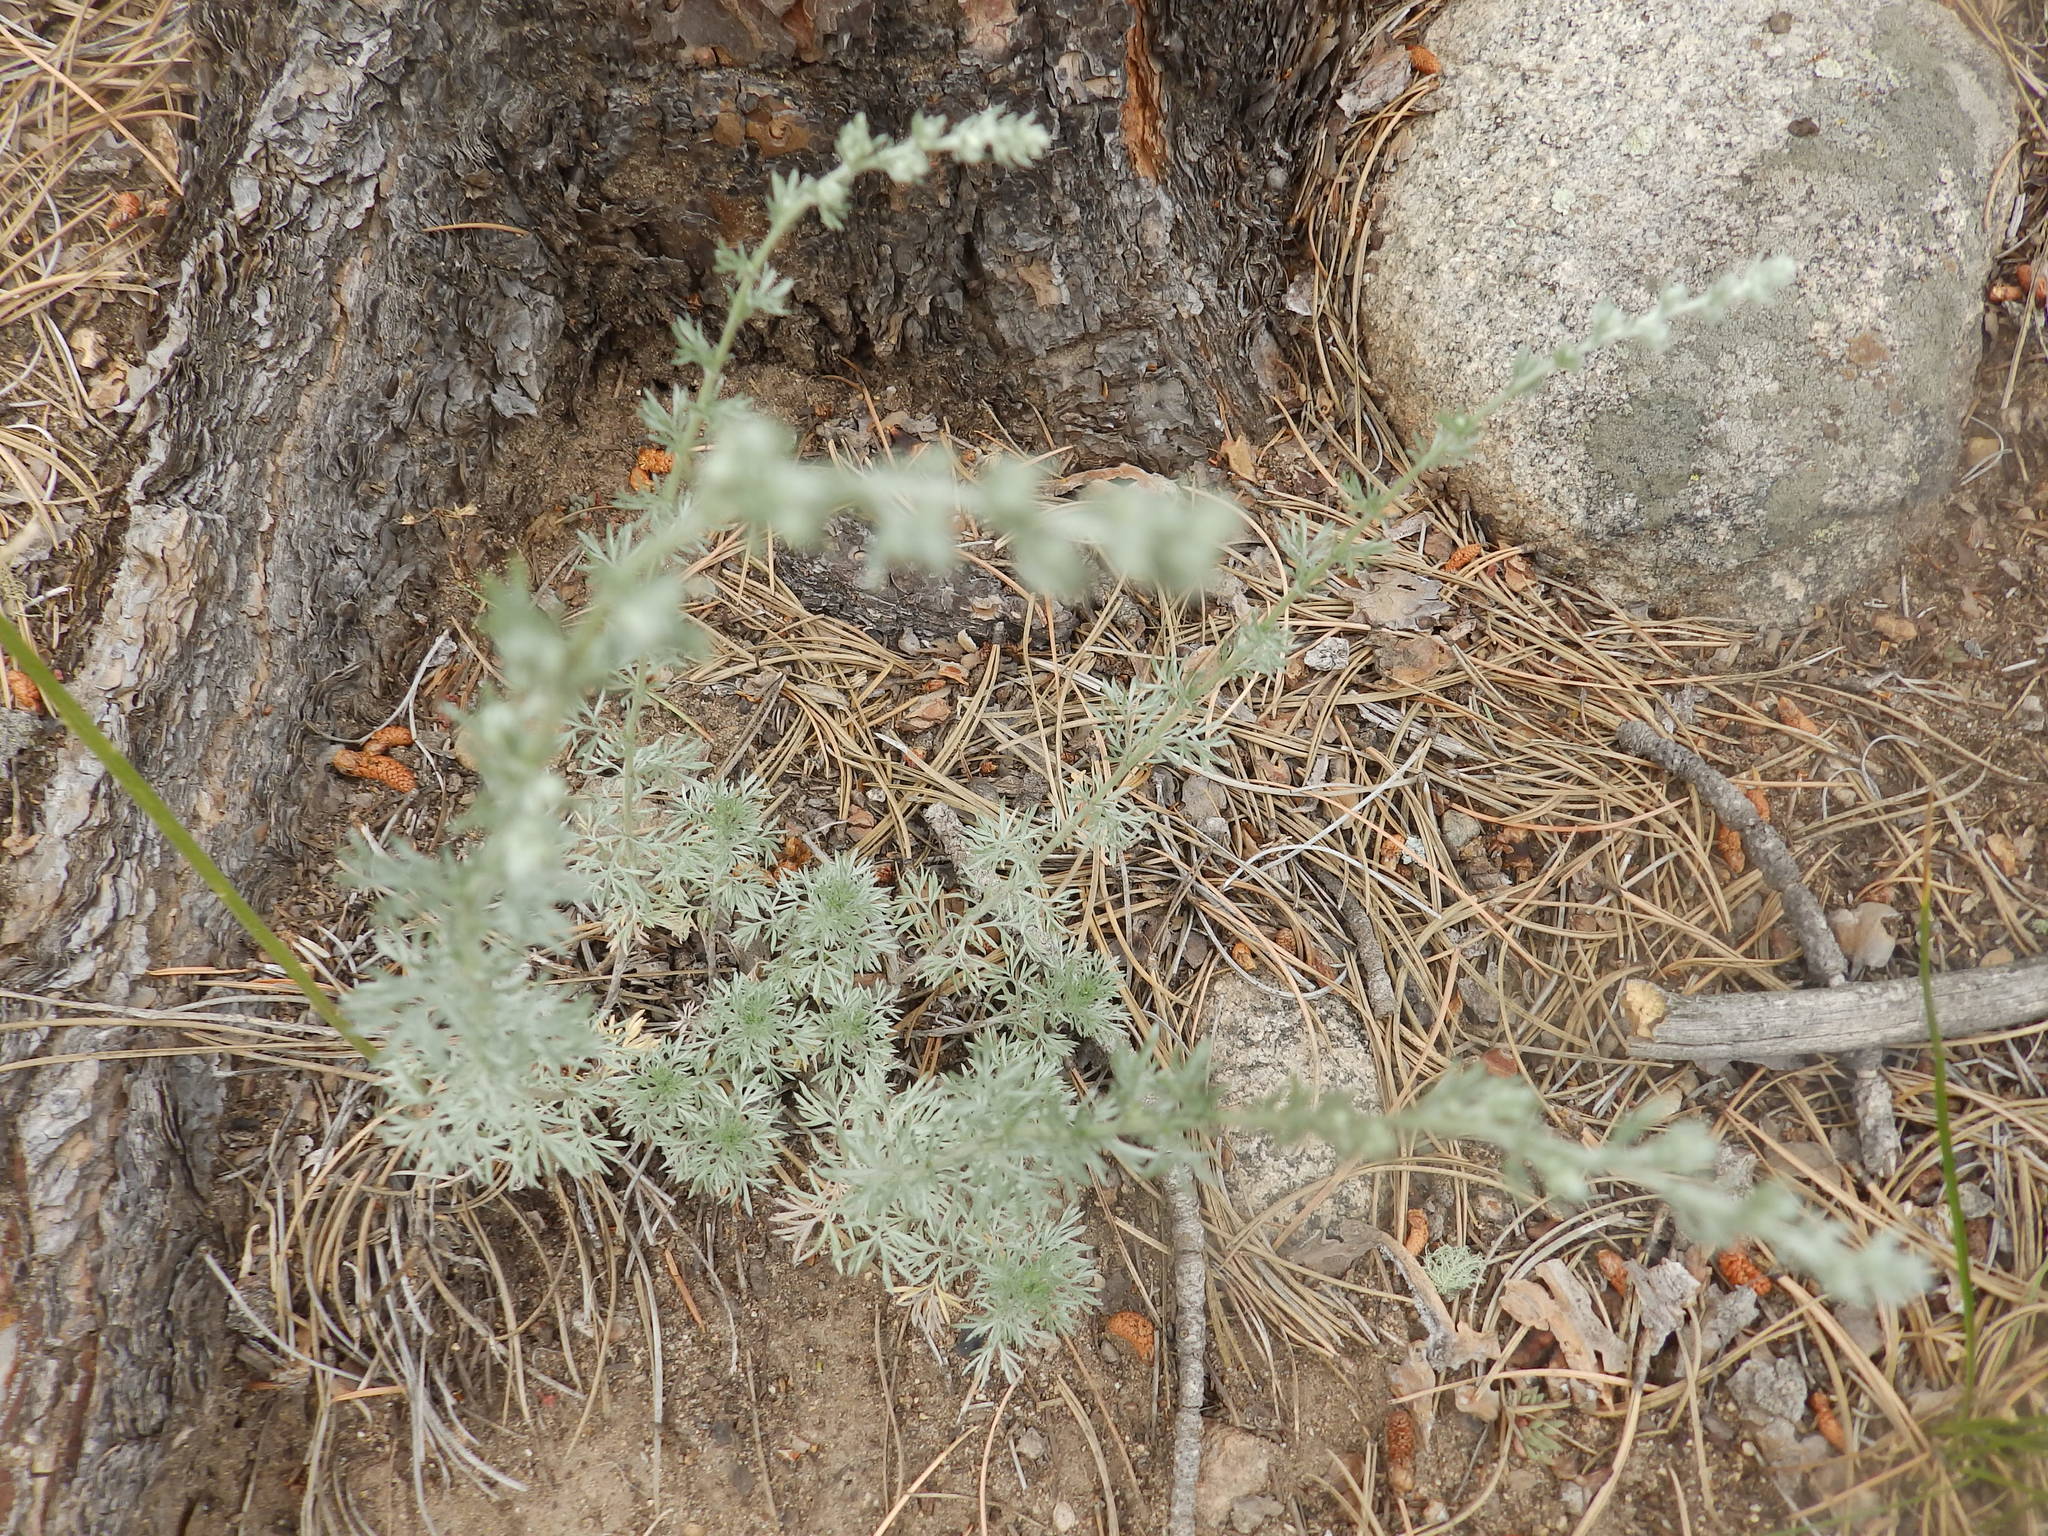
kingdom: Plantae
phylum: Tracheophyta
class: Magnoliopsida
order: Asterales
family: Asteraceae
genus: Artemisia
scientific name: Artemisia frigida
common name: Prairie sagewort
